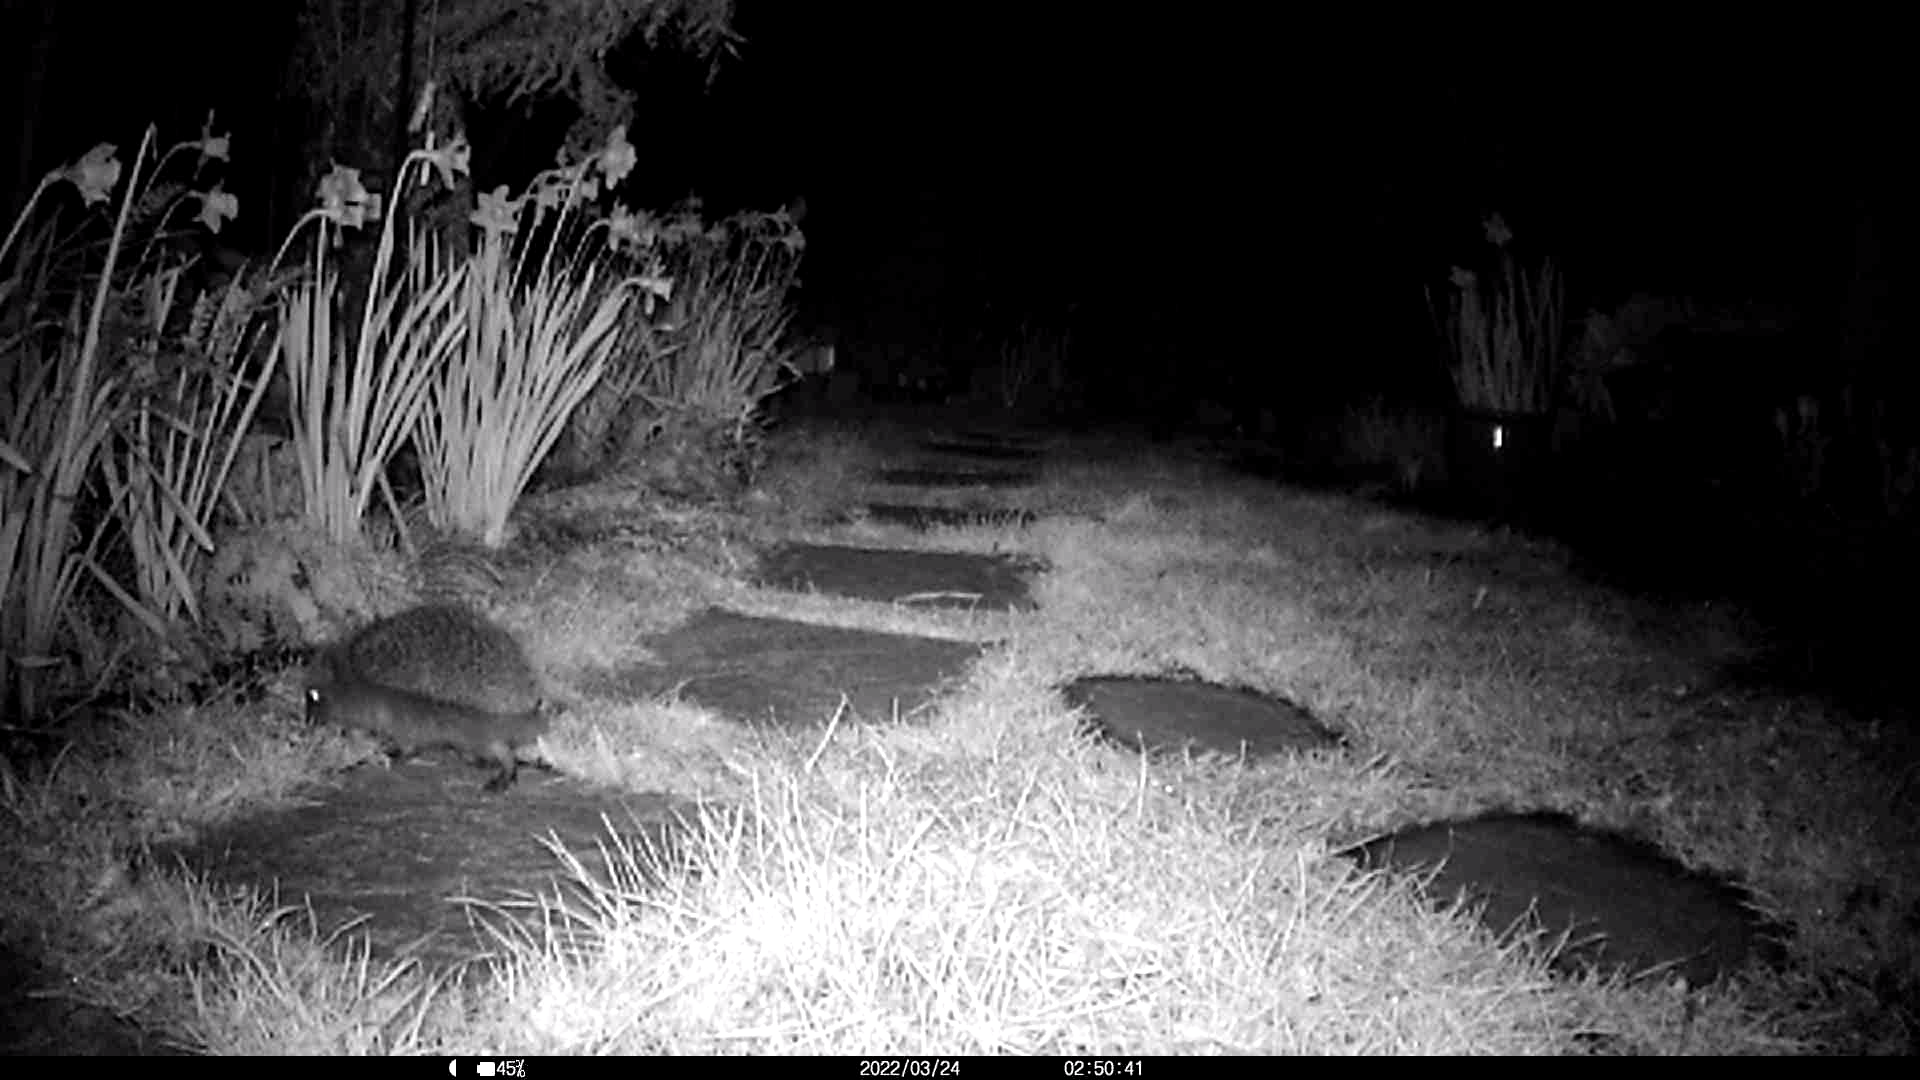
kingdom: Animalia
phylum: Chordata
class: Mammalia
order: Erinaceomorpha
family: Erinaceidae
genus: Erinaceus
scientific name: Erinaceus europaeus
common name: West european hedgehog
